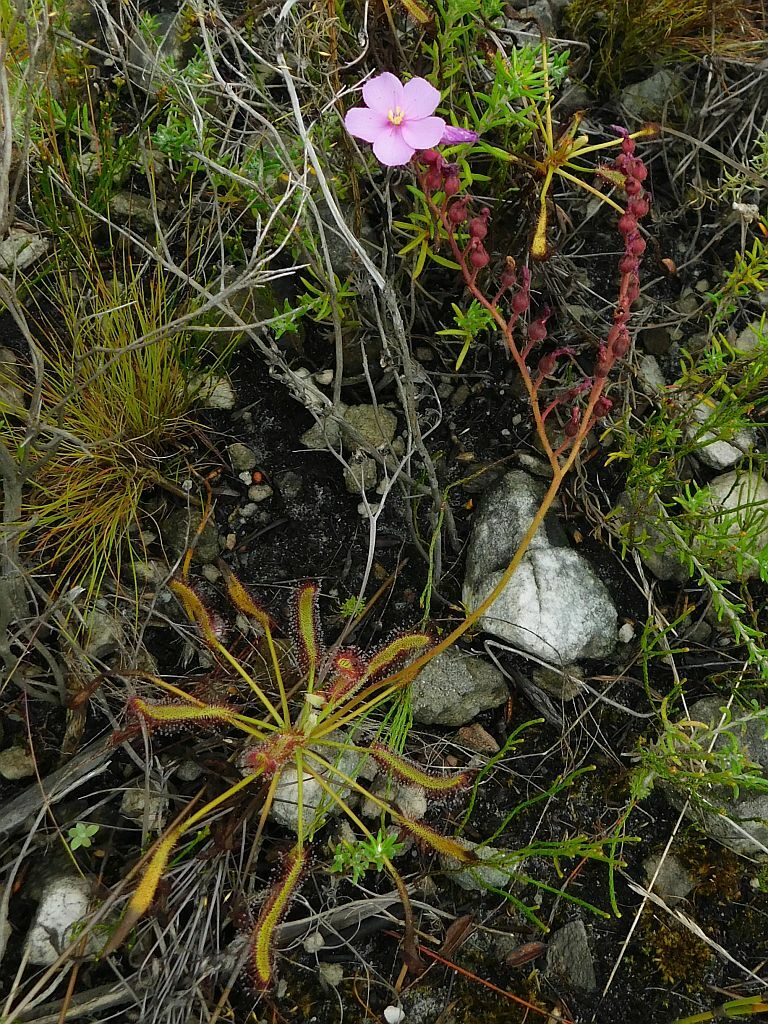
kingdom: Plantae
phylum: Tracheophyta
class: Magnoliopsida
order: Caryophyllales
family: Droseraceae
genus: Drosera
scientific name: Drosera ramentacea
